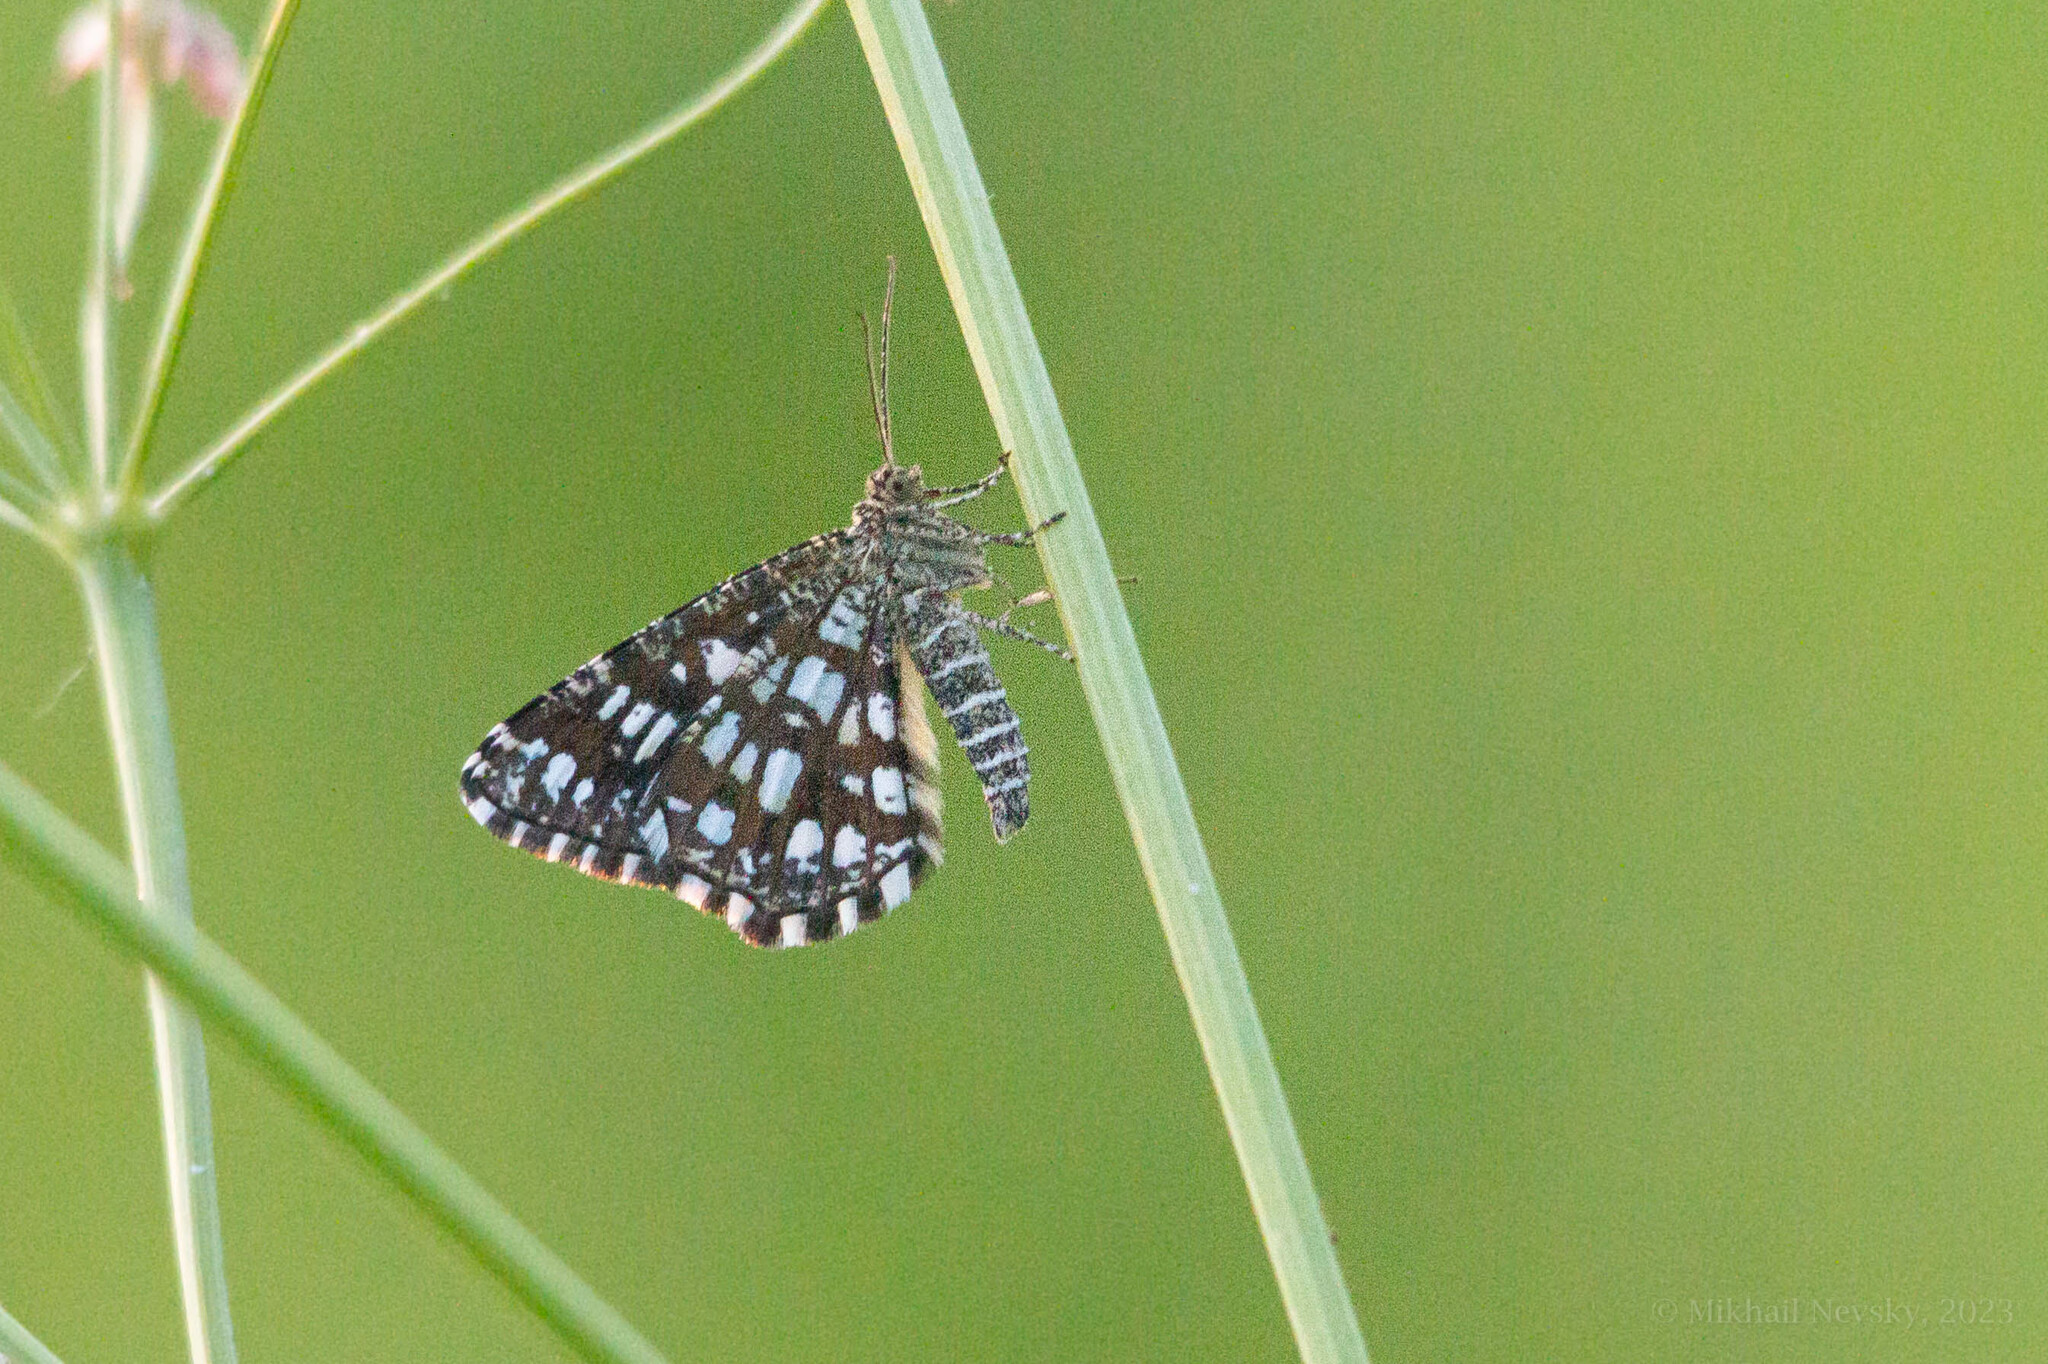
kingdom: Animalia
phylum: Arthropoda
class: Insecta
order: Lepidoptera
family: Geometridae
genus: Chiasmia
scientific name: Chiasmia clathrata
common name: Latticed heath
